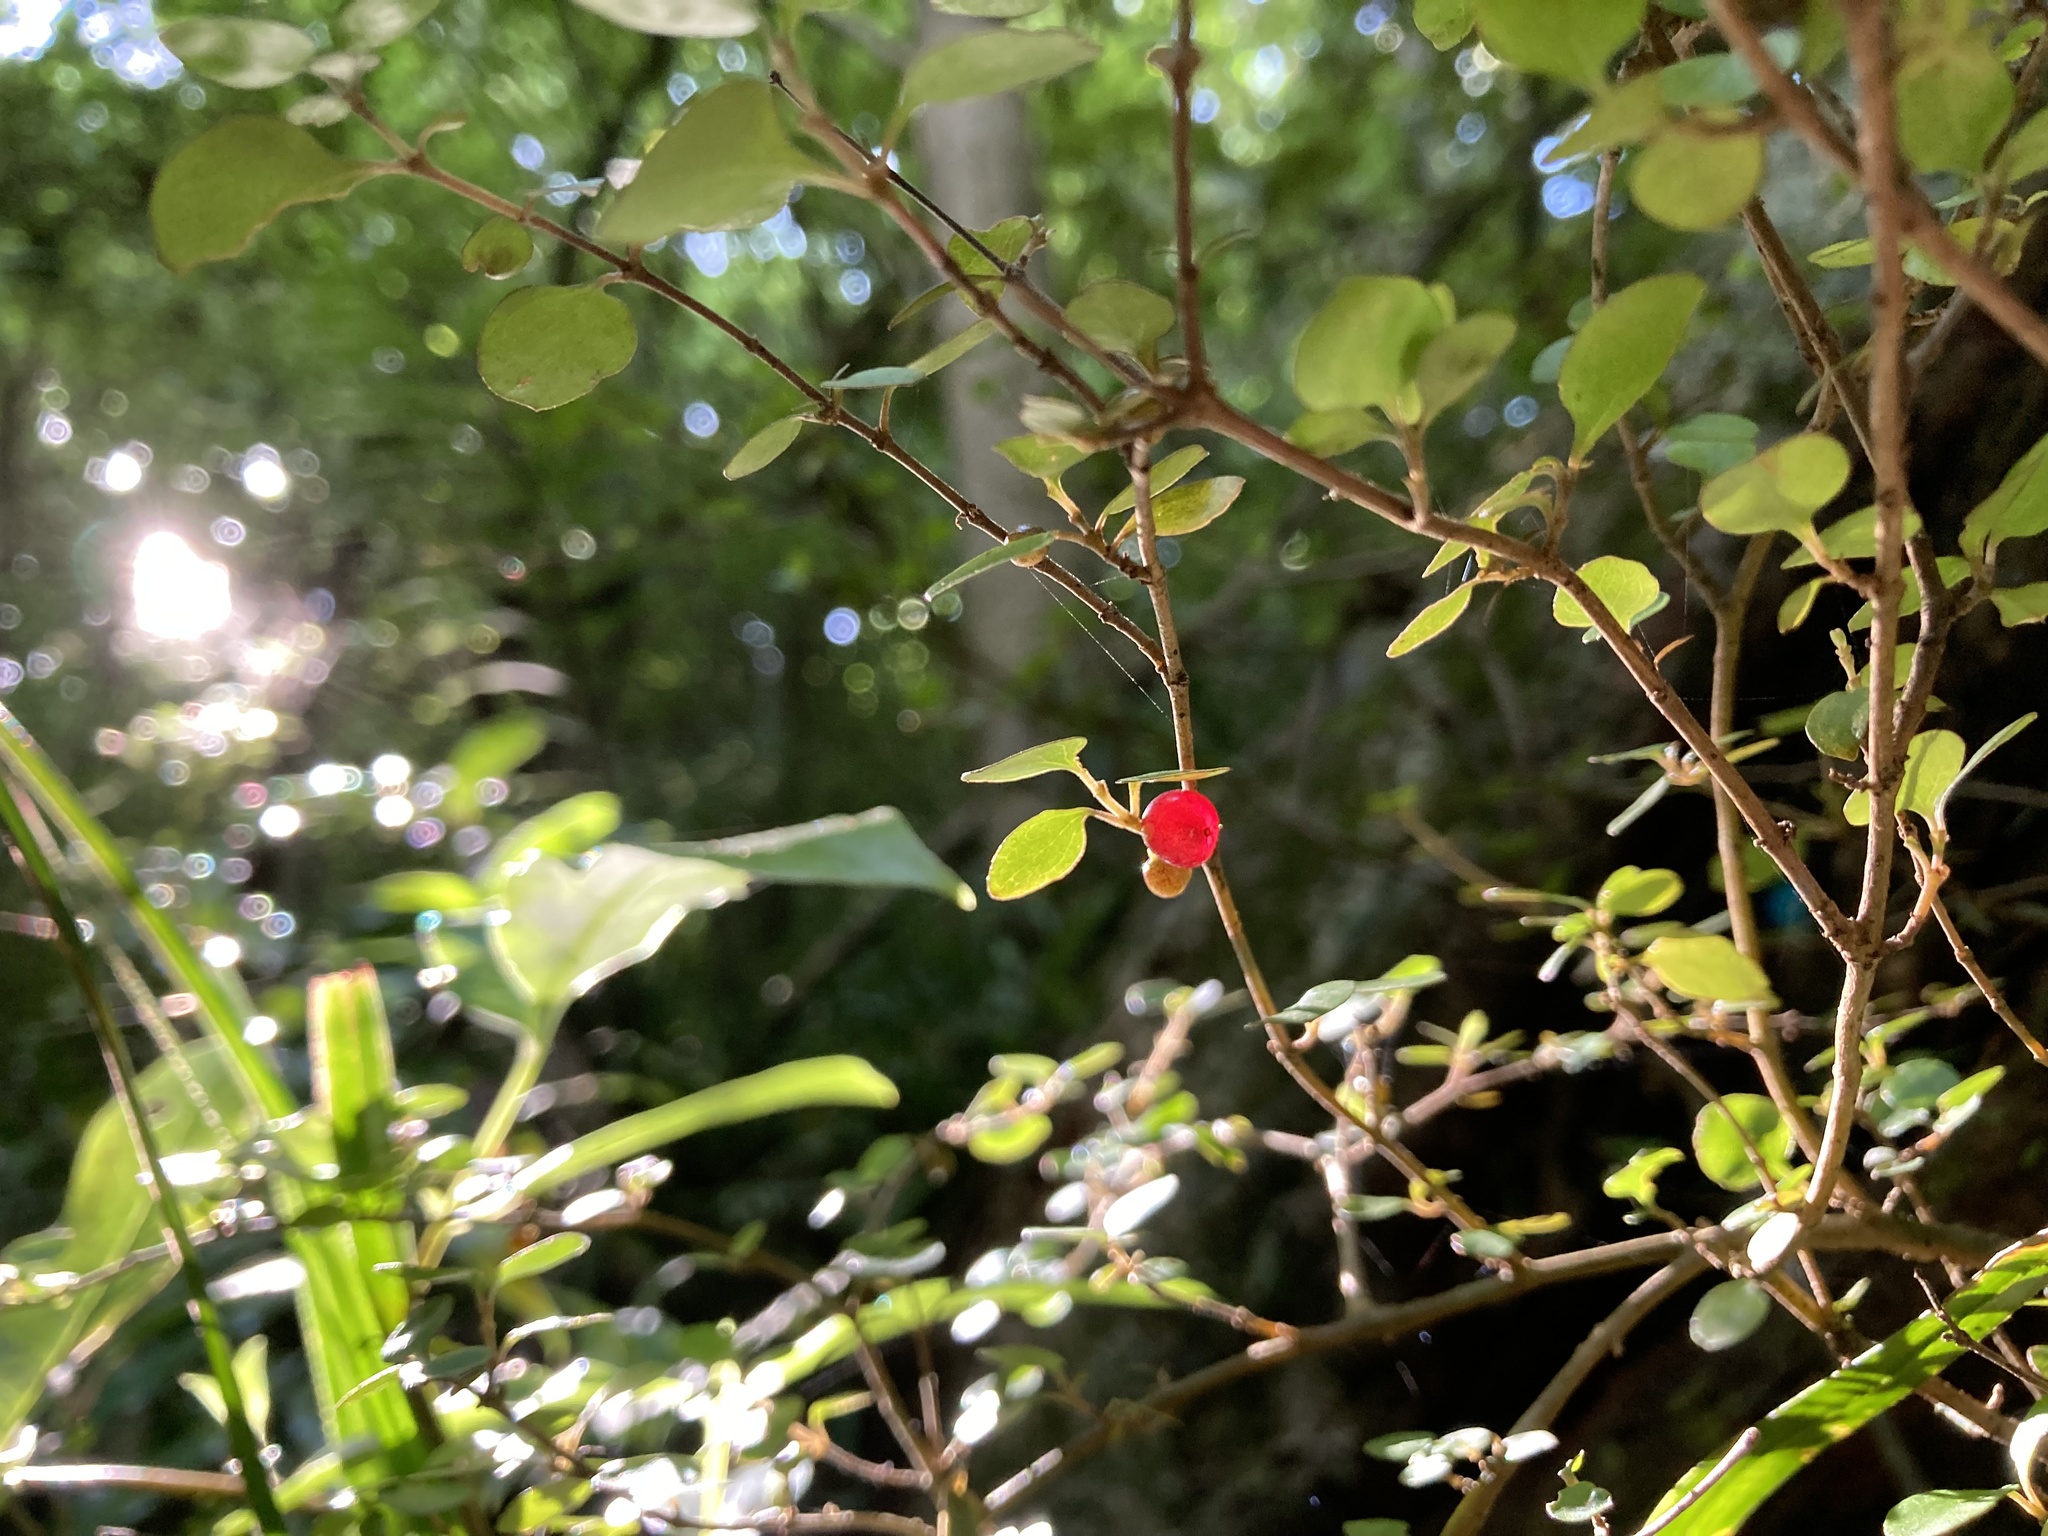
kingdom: Plantae
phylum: Tracheophyta
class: Magnoliopsida
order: Gentianales
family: Rubiaceae
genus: Coprosma
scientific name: Coprosma rotundifolia
